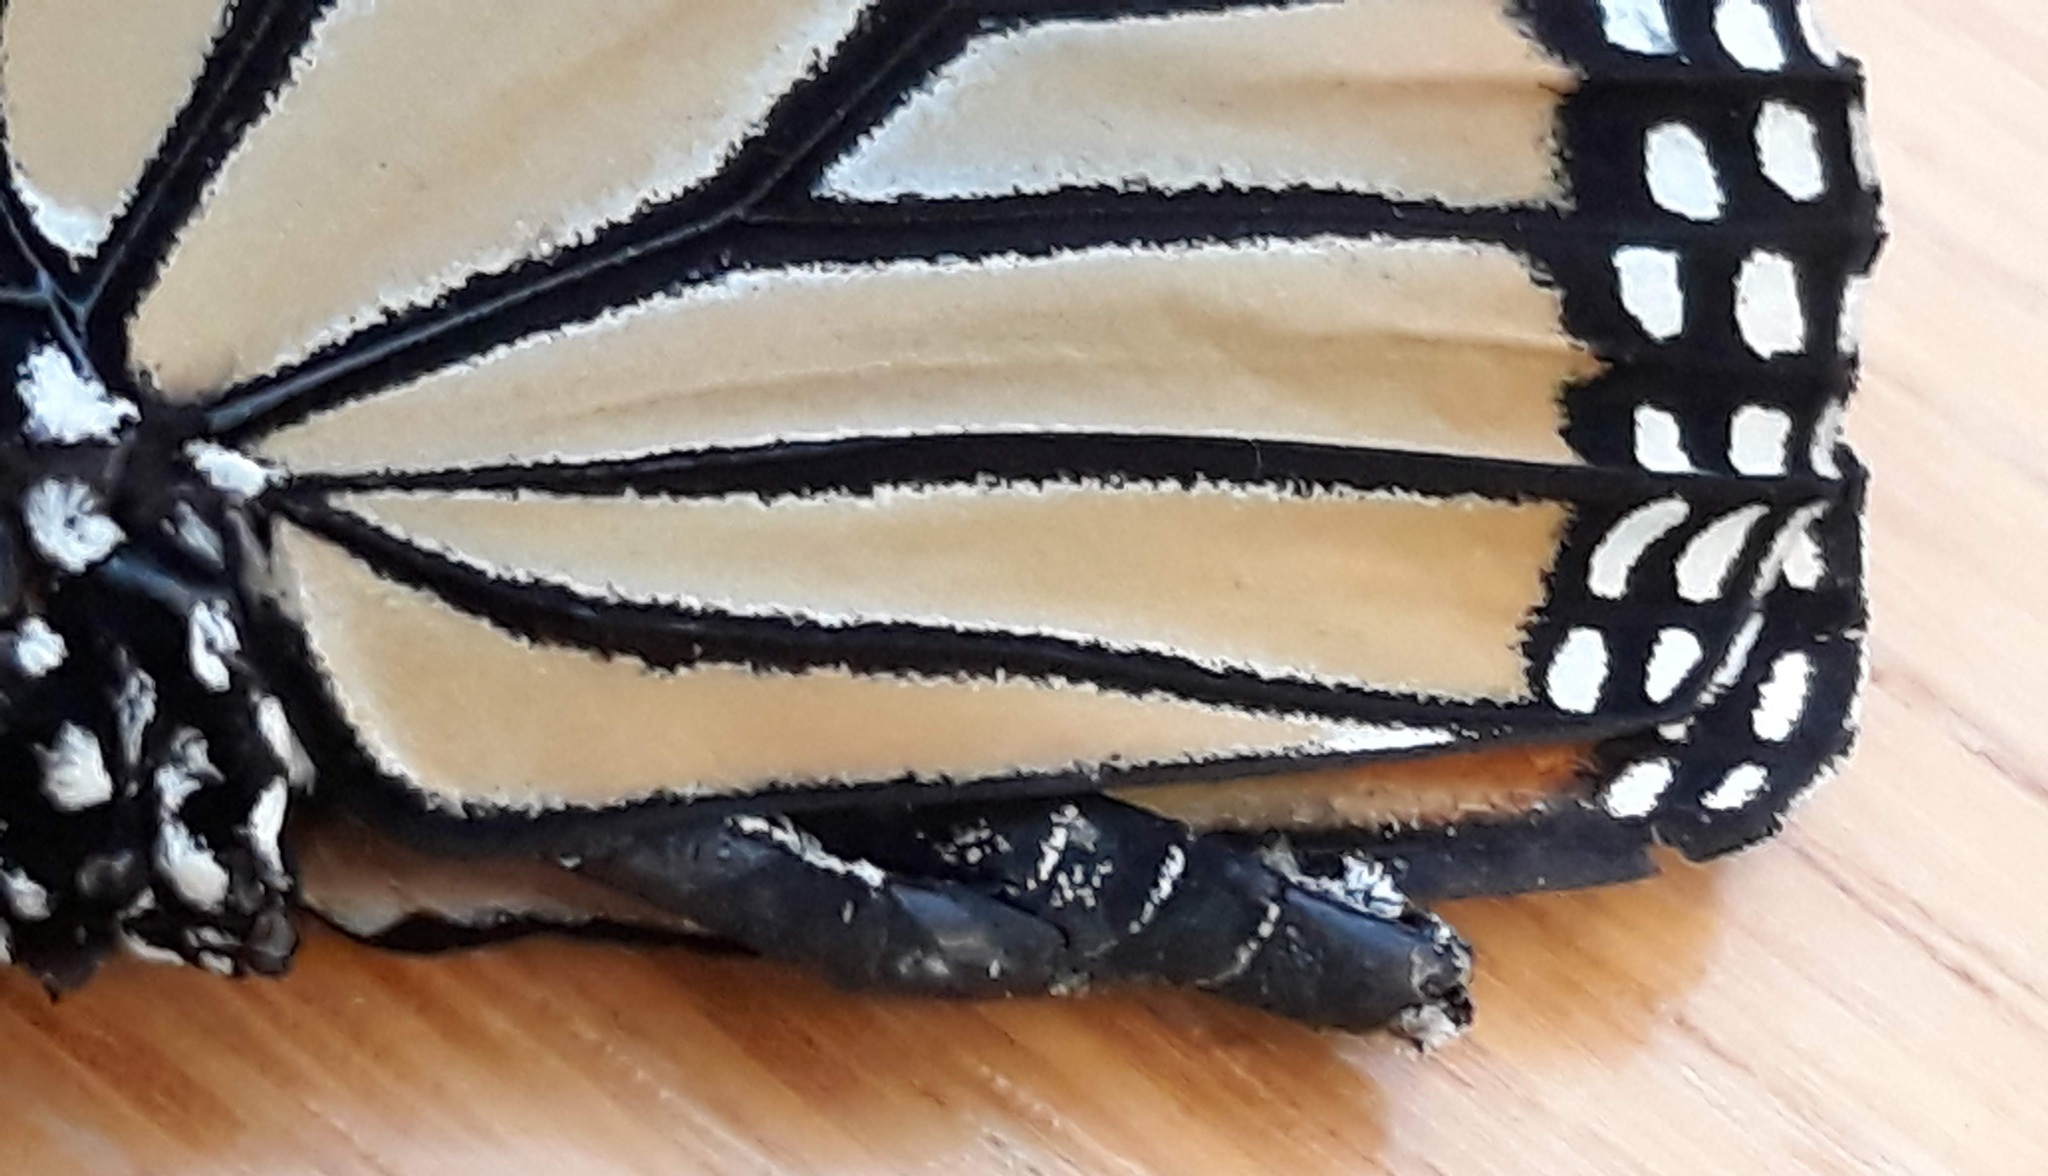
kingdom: Animalia
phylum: Arthropoda
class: Insecta
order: Lepidoptera
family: Nymphalidae
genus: Danaus
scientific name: Danaus plexippus
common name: Monarch
